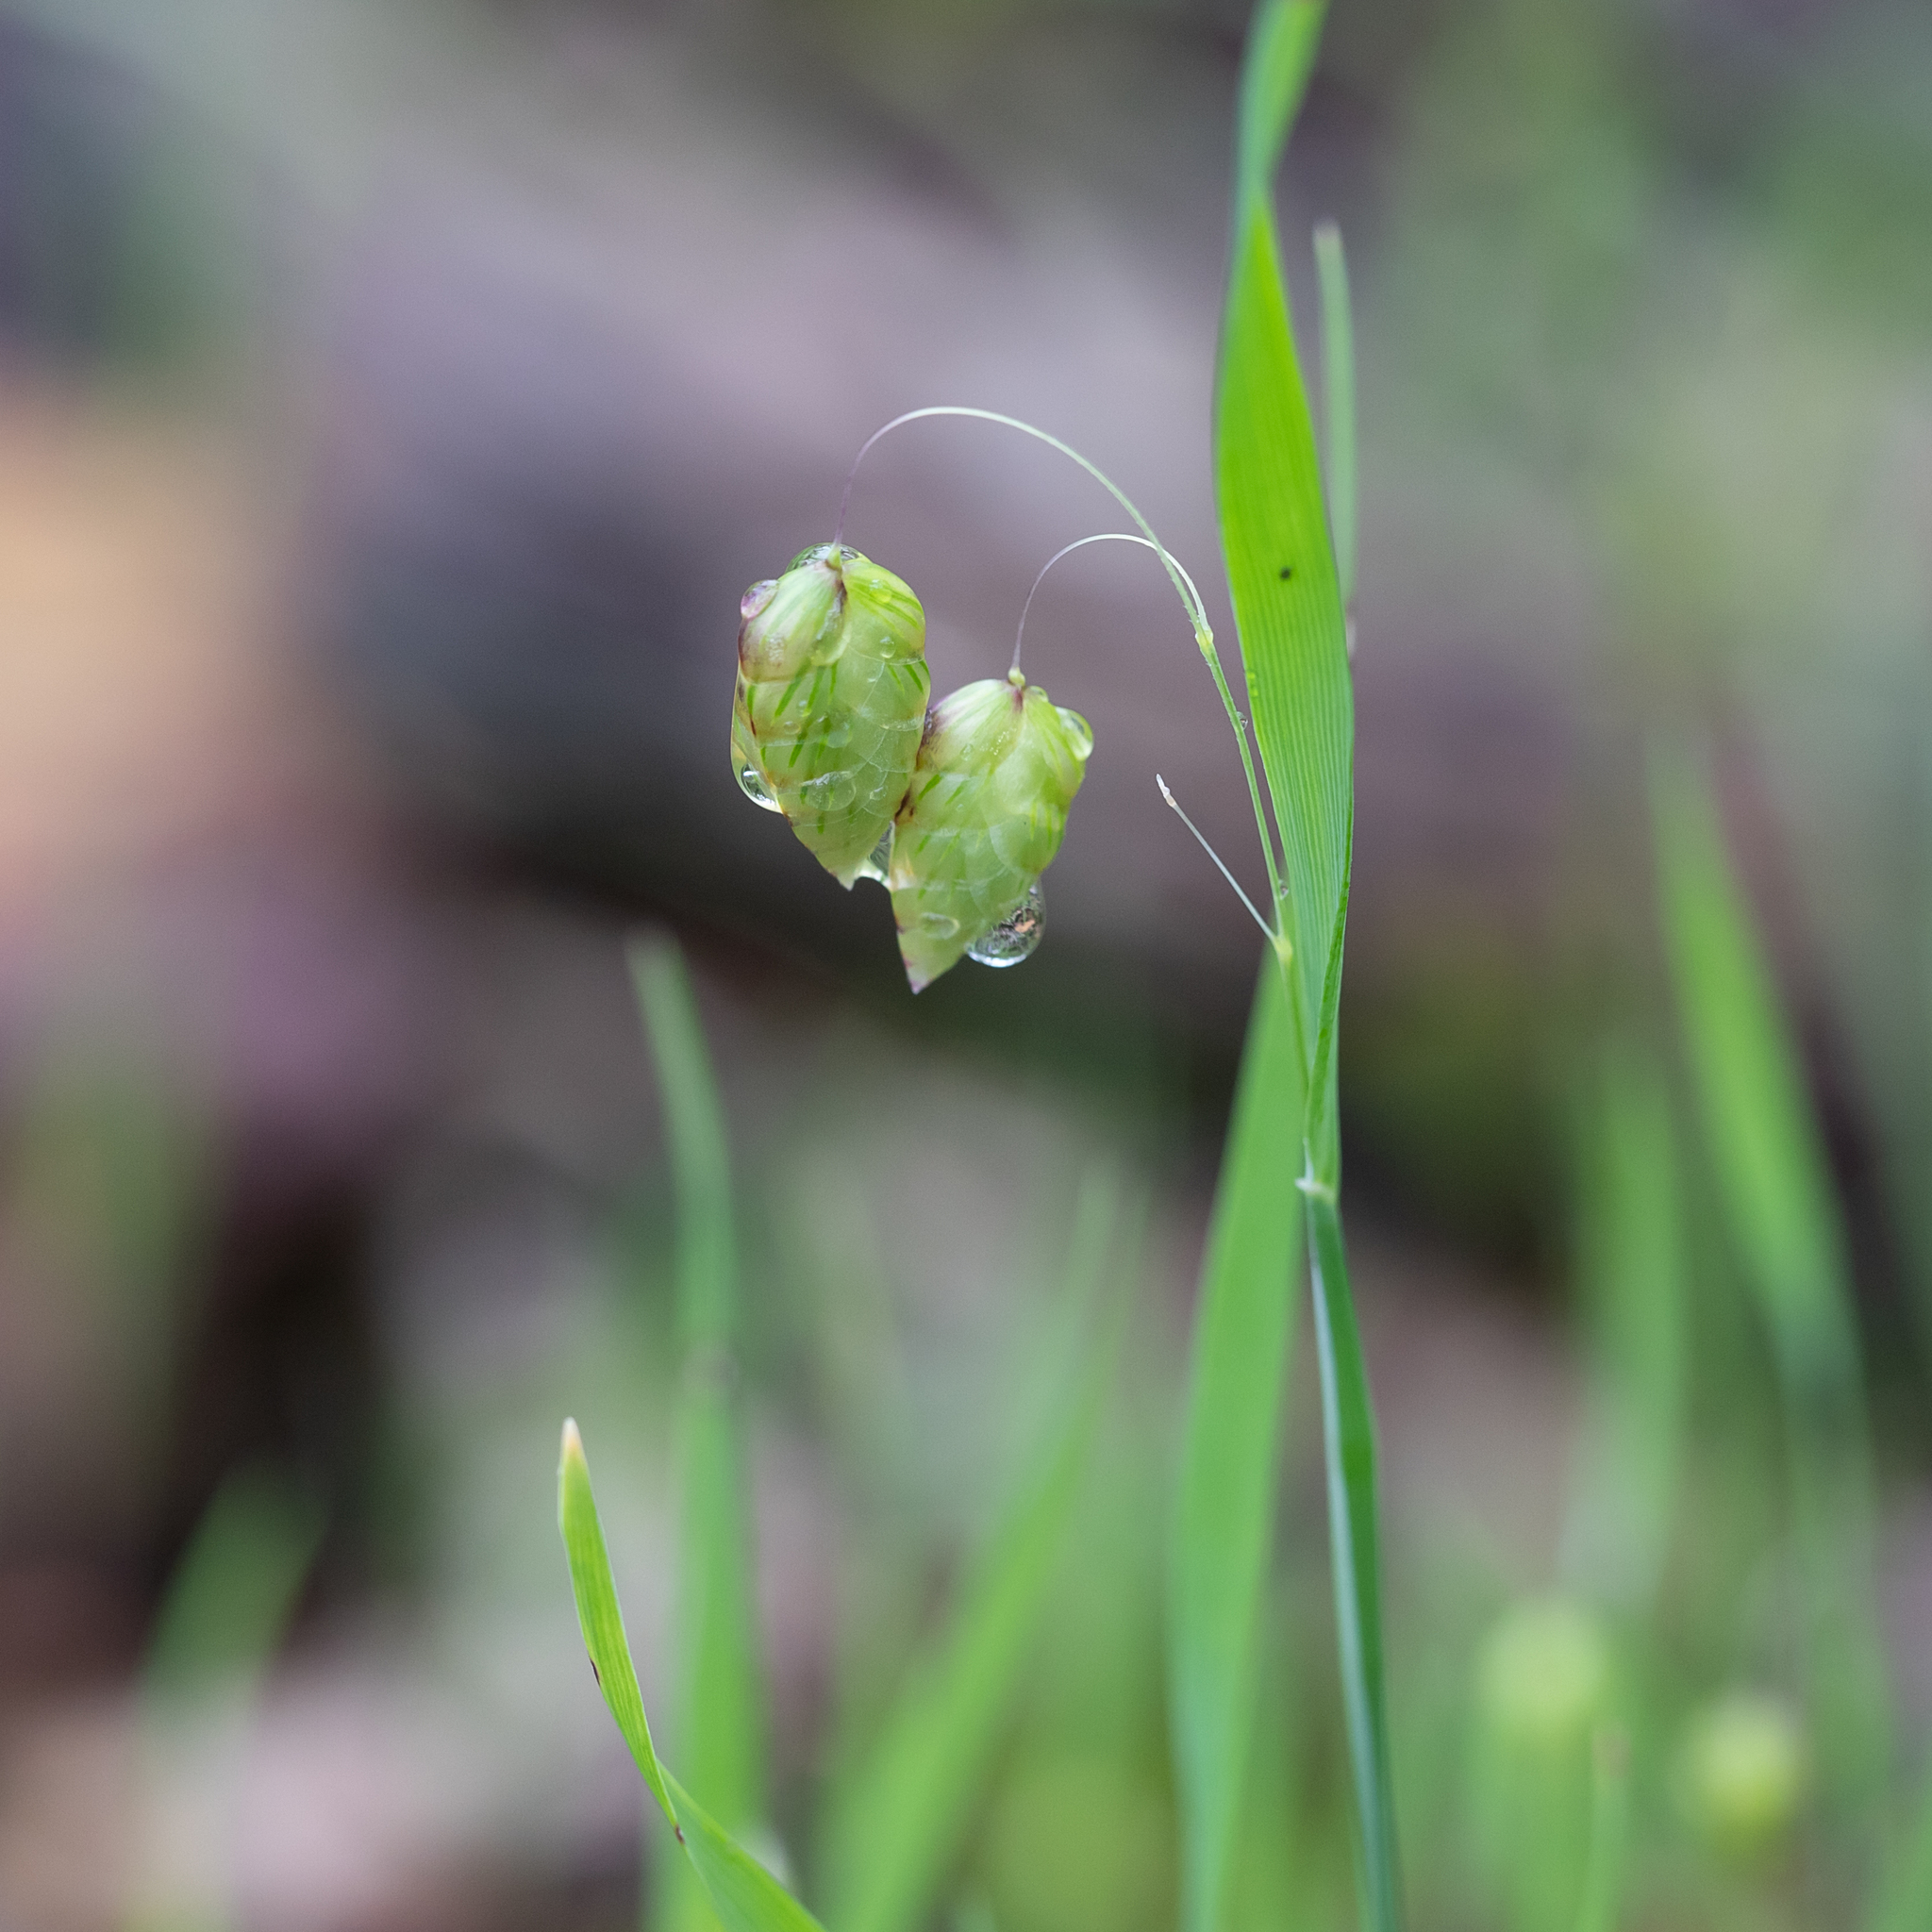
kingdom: Plantae
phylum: Tracheophyta
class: Liliopsida
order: Poales
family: Poaceae
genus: Briza
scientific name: Briza maxima
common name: Big quakinggrass
